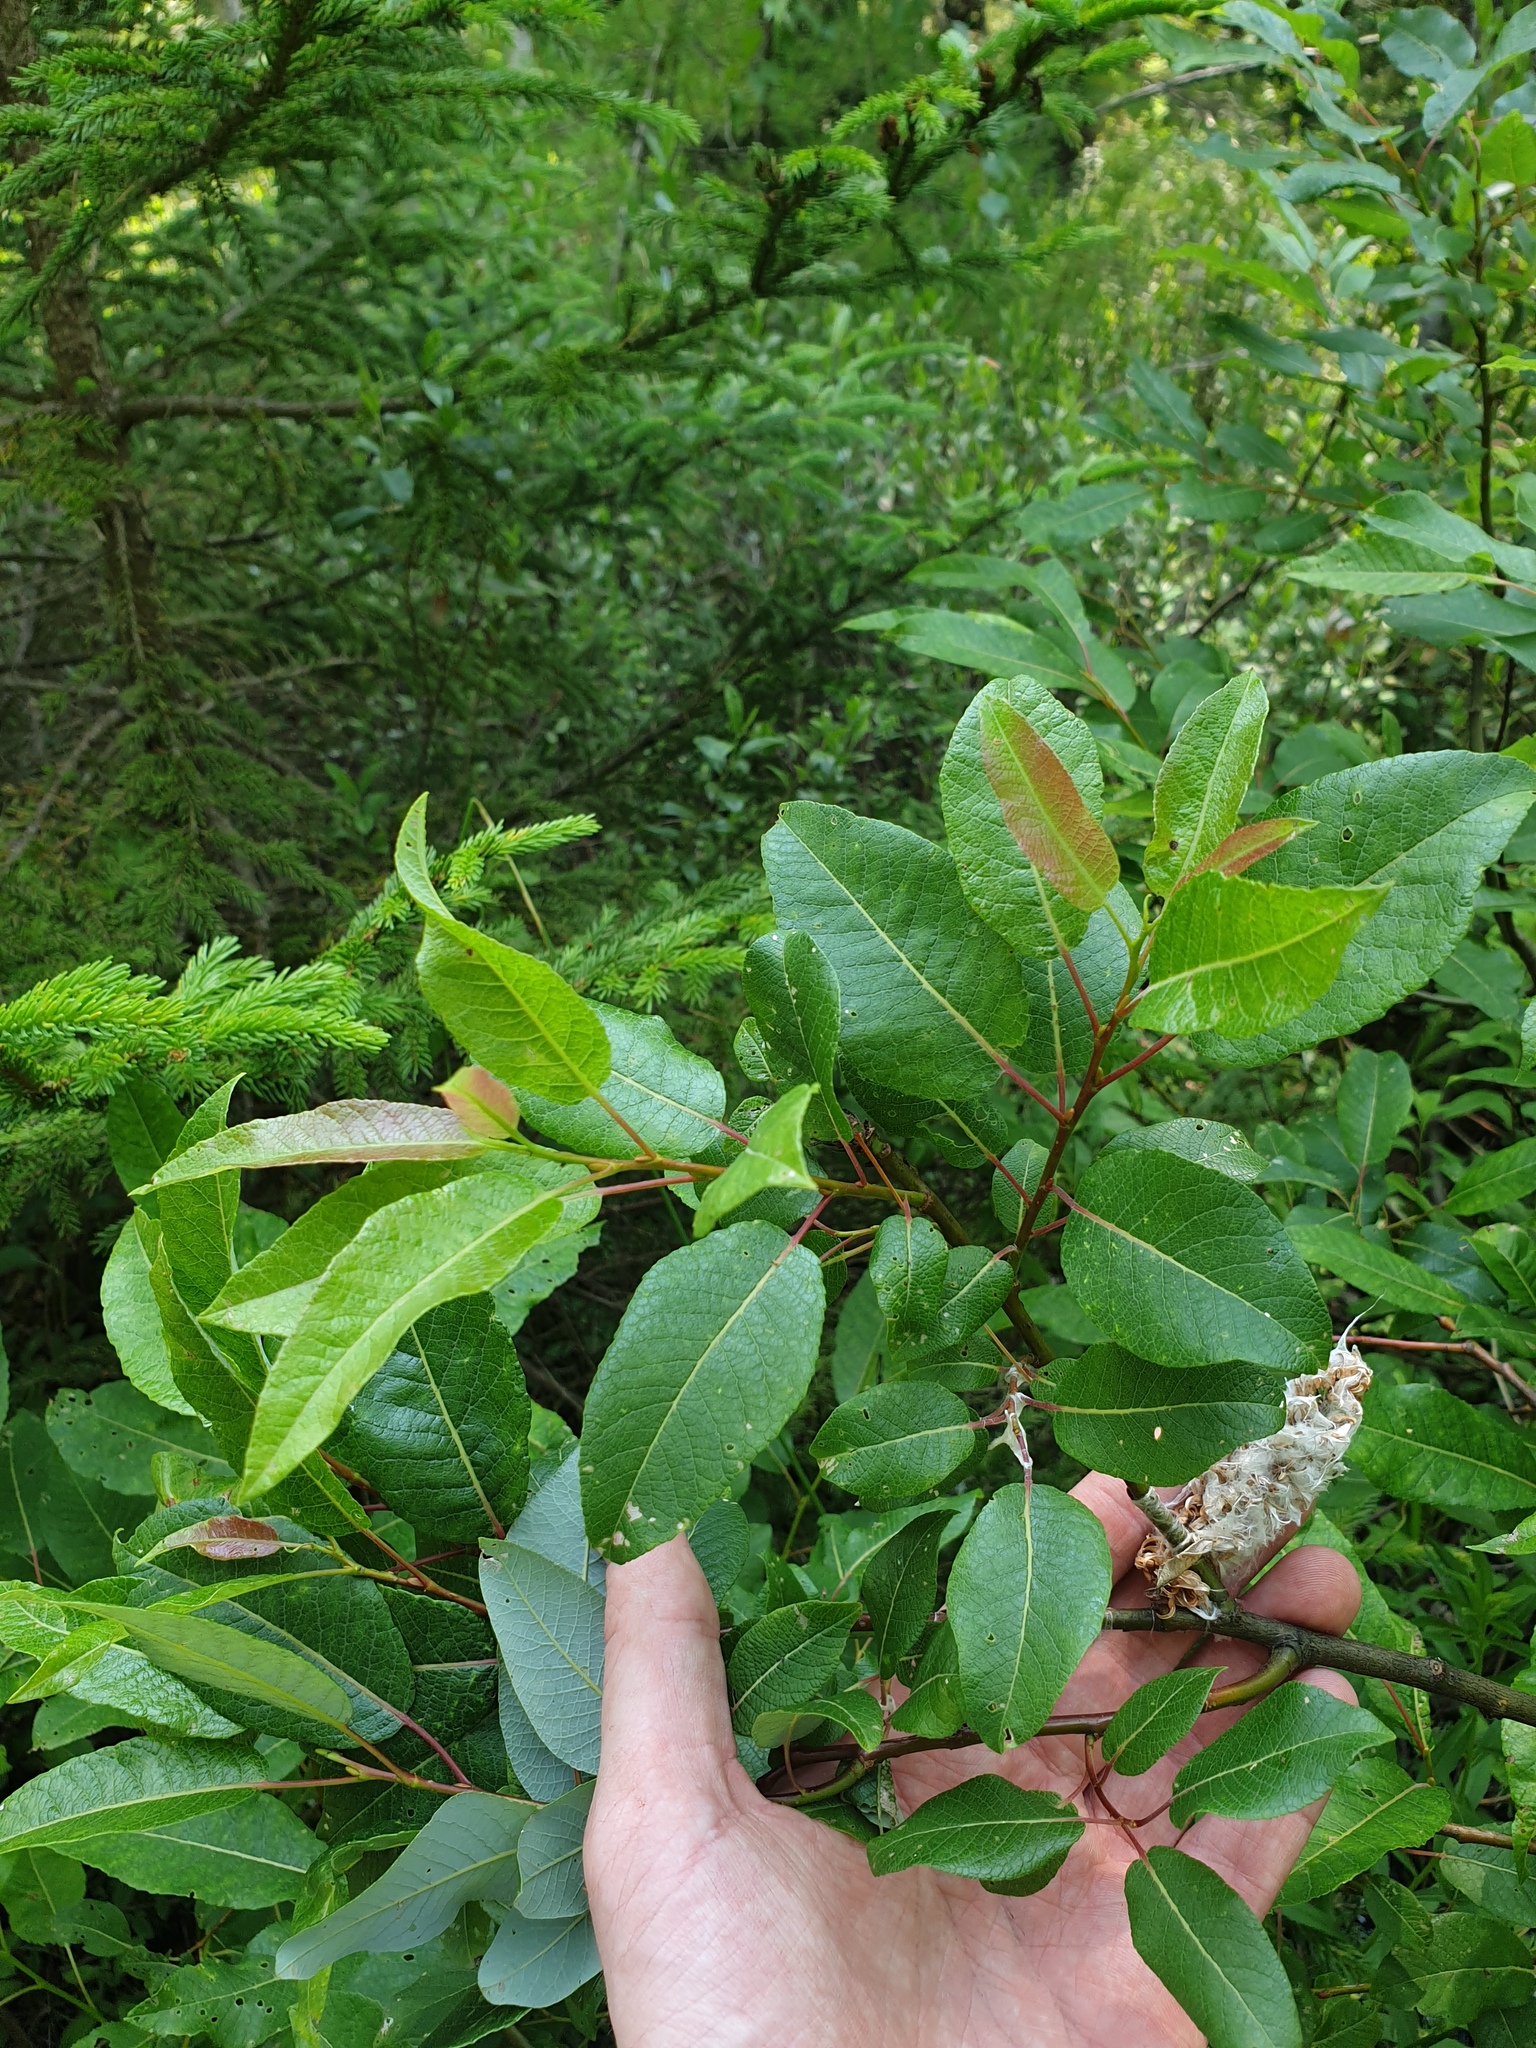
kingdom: Plantae
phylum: Tracheophyta
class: Magnoliopsida
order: Malpighiales
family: Salicaceae
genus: Salix
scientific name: Salix pyrifolia
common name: Balsam willow
